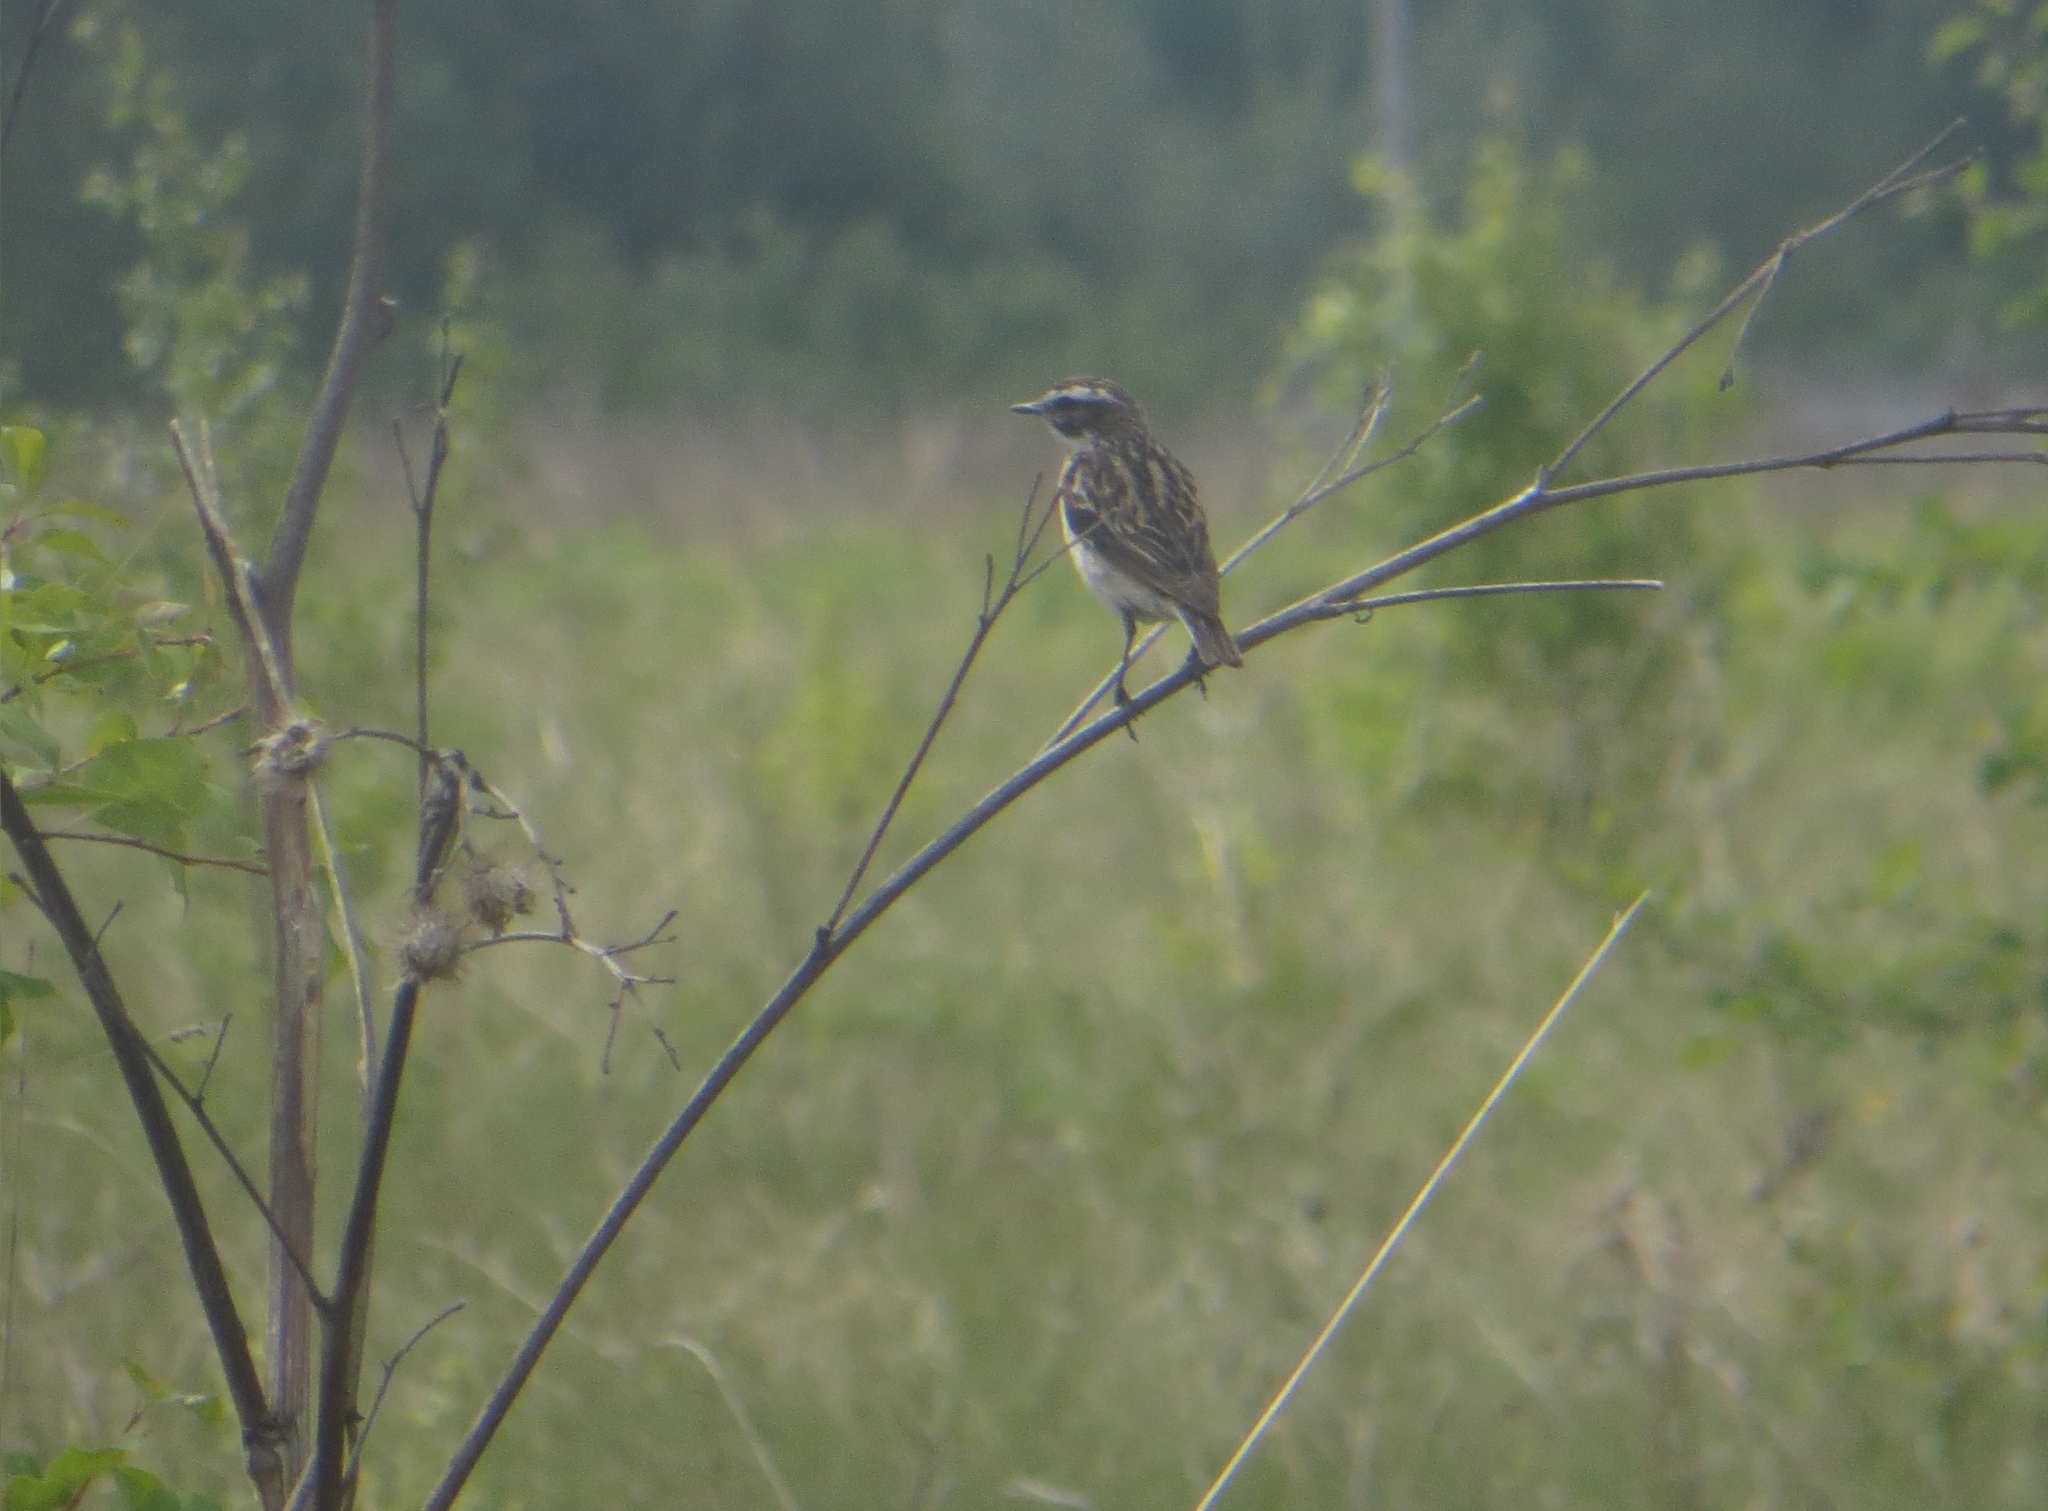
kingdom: Animalia
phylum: Chordata
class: Aves
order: Passeriformes
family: Muscicapidae
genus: Saxicola
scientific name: Saxicola rubetra
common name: Whinchat
